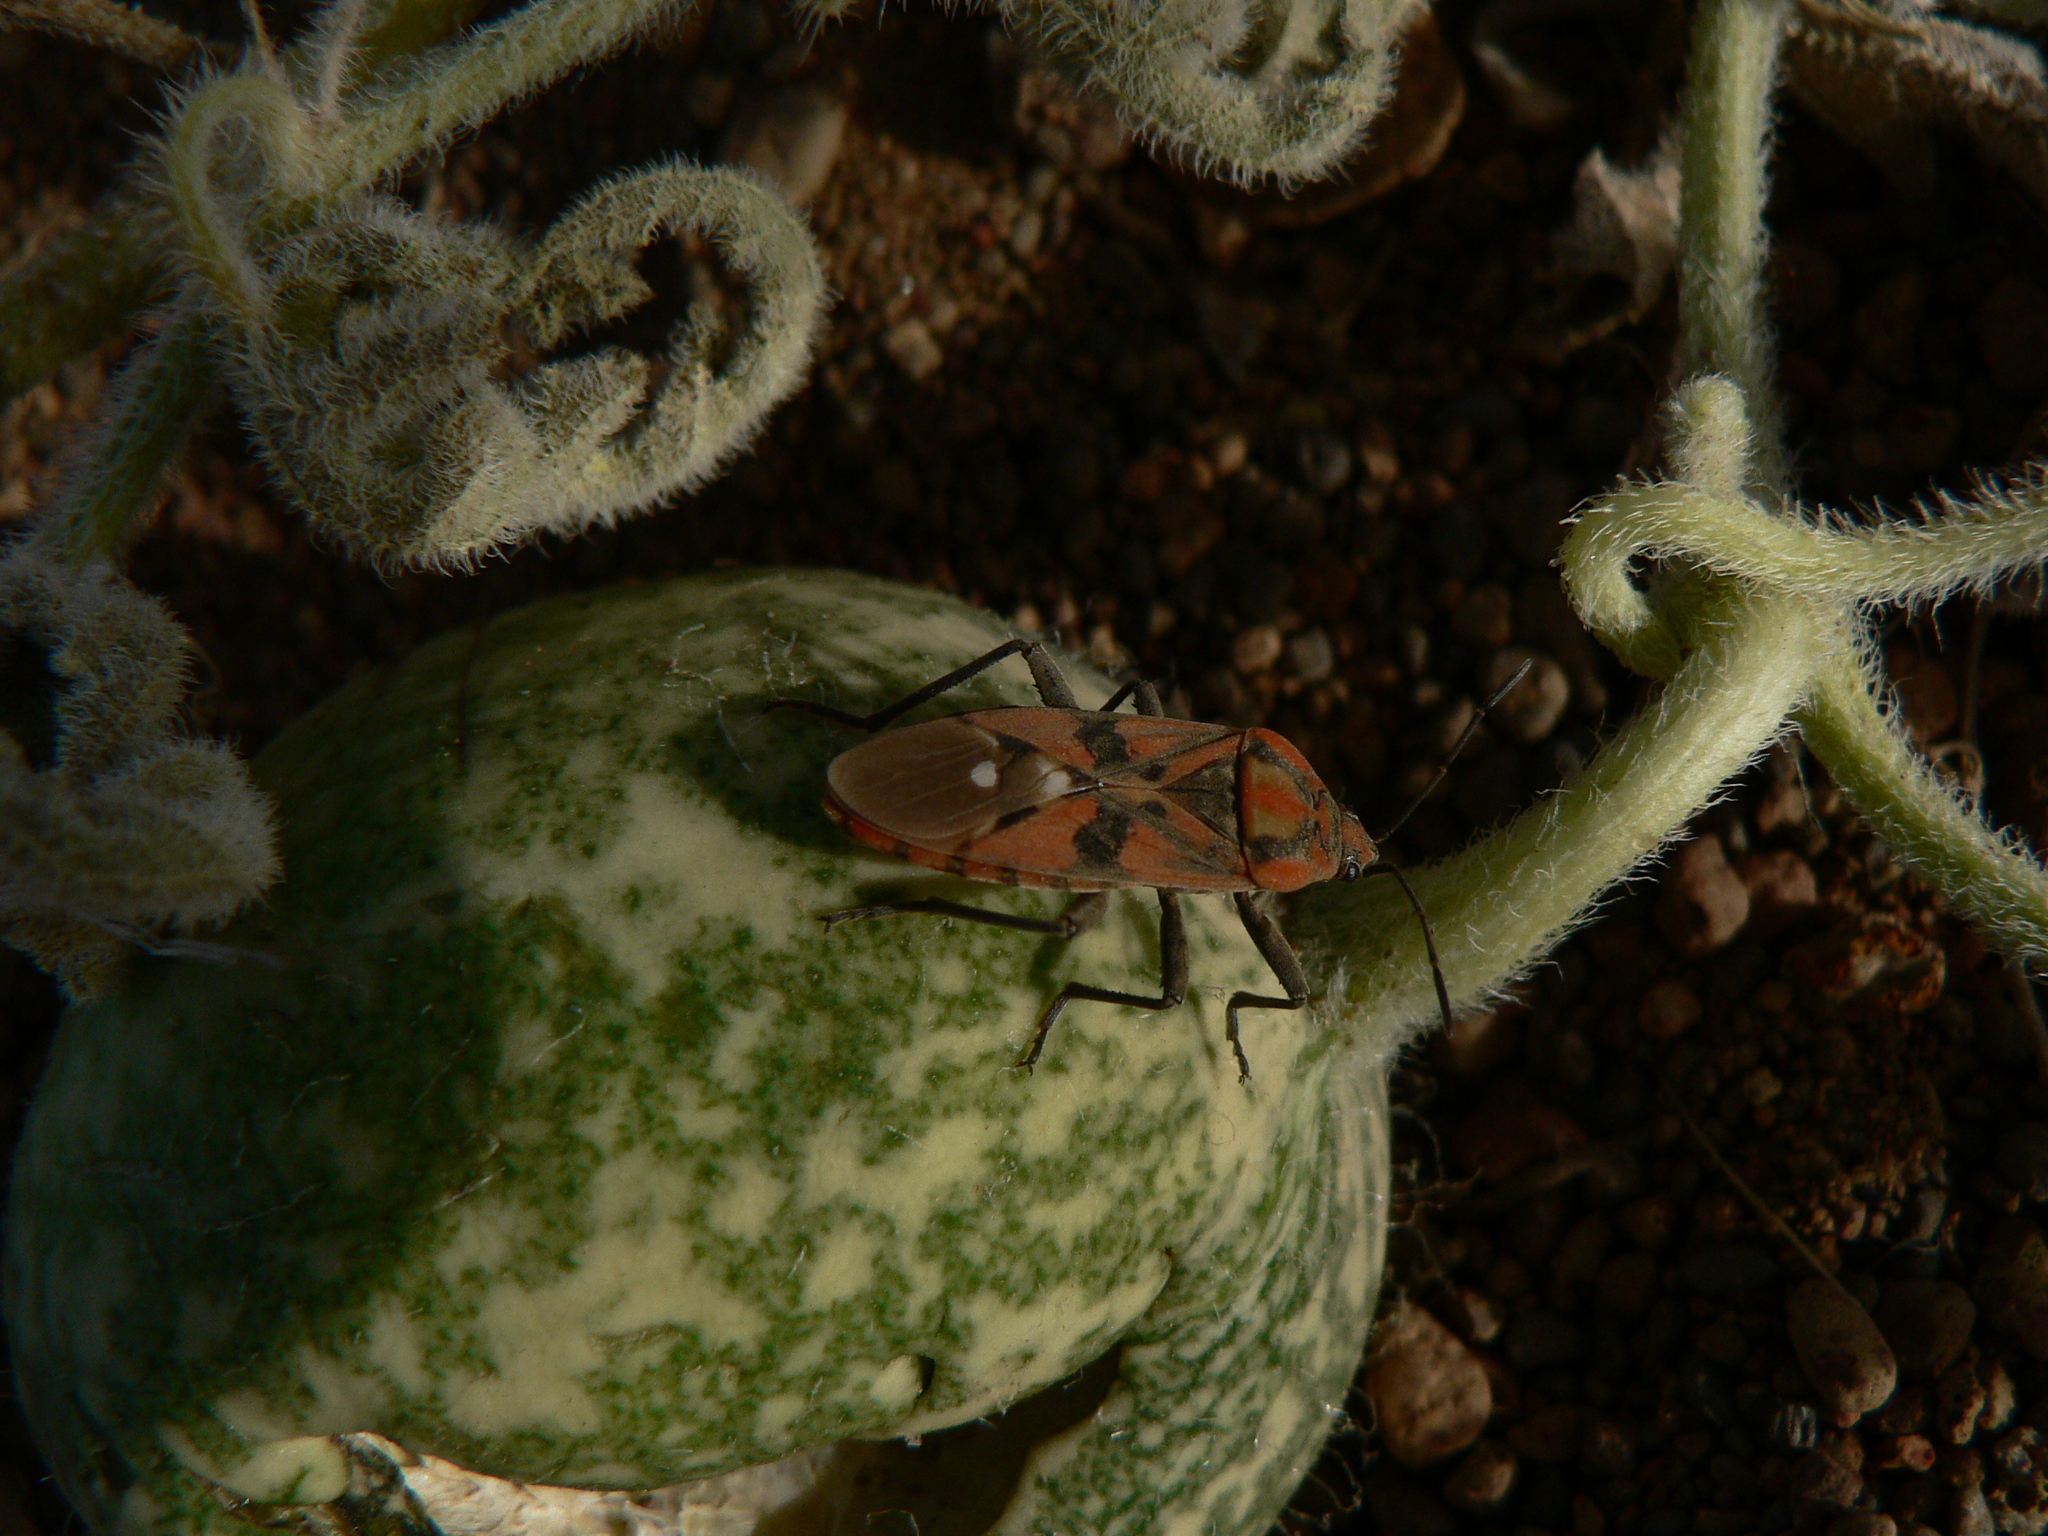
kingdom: Animalia
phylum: Arthropoda
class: Insecta
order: Hemiptera
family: Lygaeidae
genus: Spilostethus
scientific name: Spilostethus pandurus
